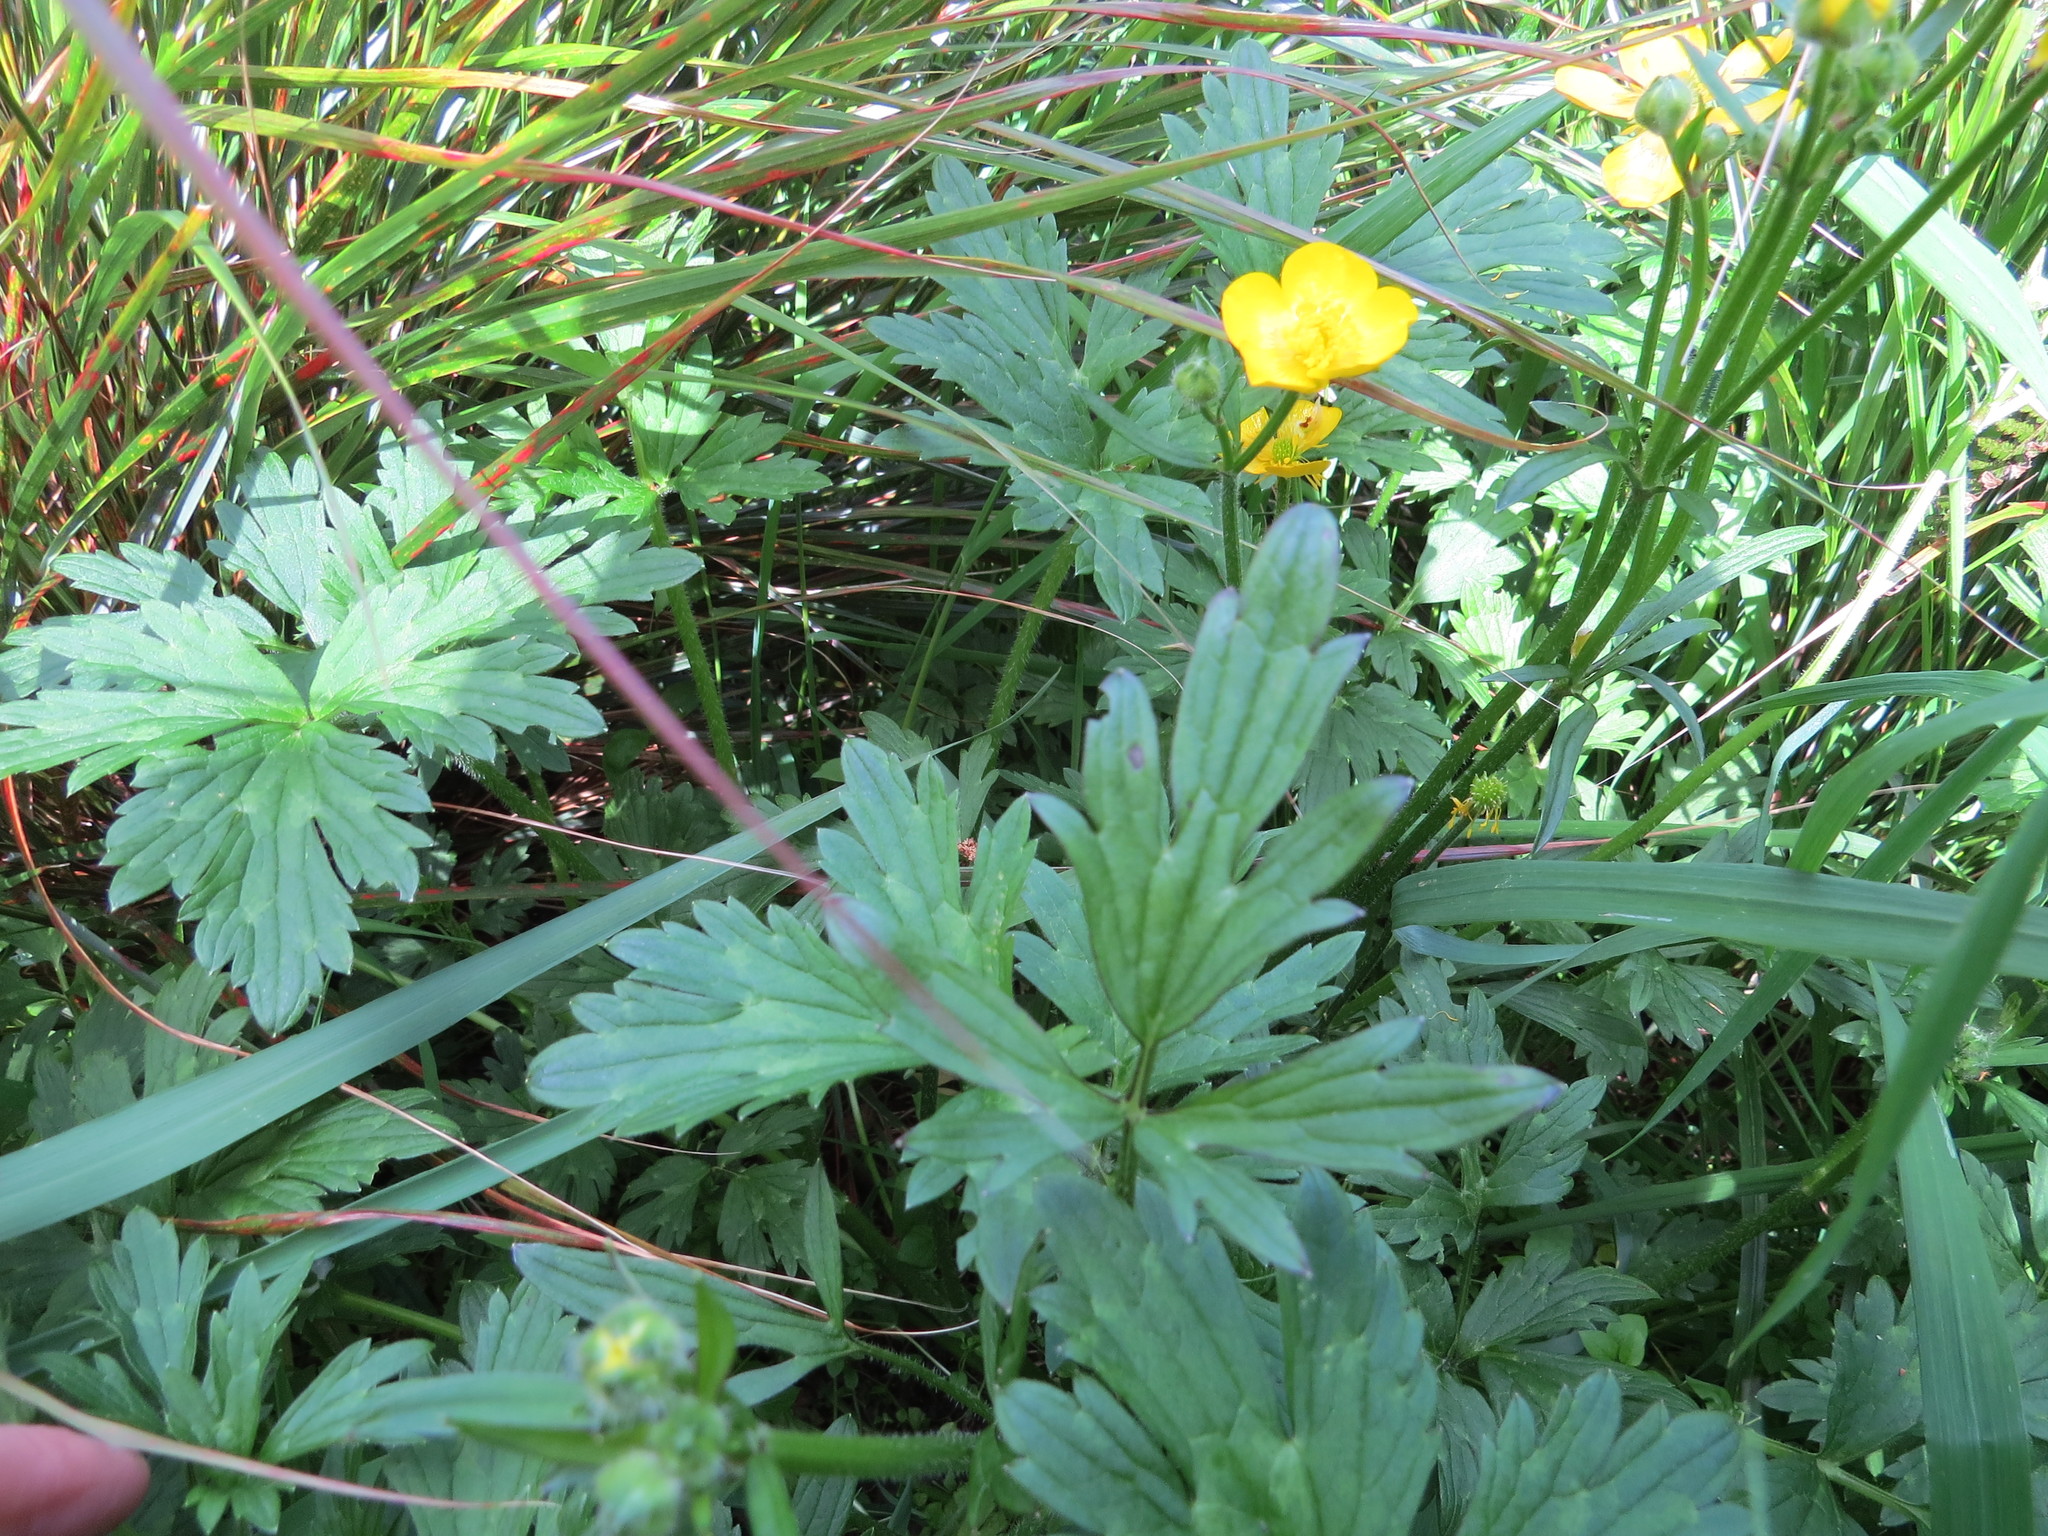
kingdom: Plantae
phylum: Tracheophyta
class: Magnoliopsida
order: Ranunculales
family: Ranunculaceae
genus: Ranunculus
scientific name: Ranunculus repens
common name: Creeping buttercup
